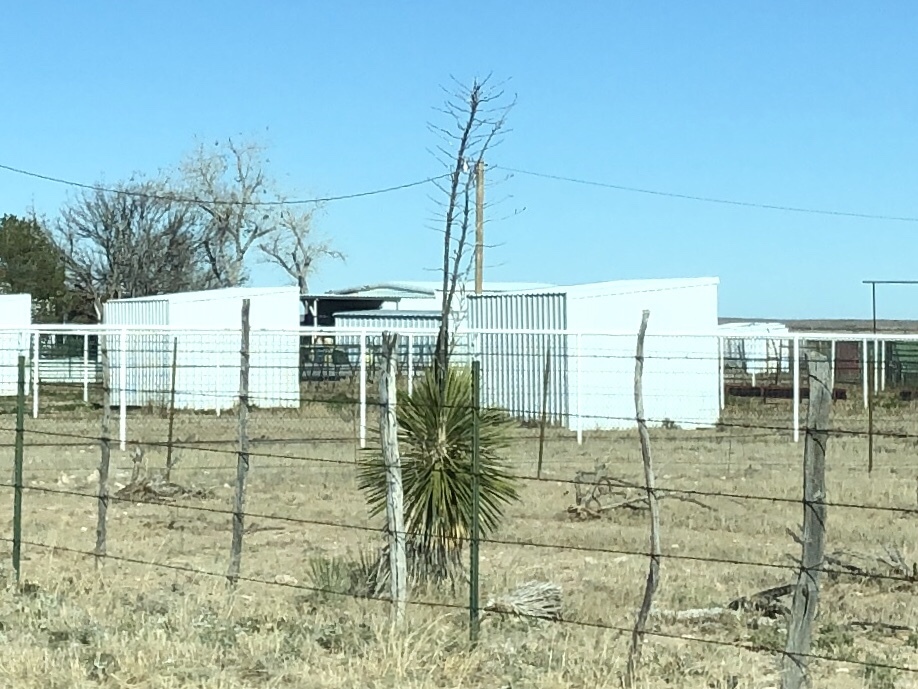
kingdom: Plantae
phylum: Tracheophyta
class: Liliopsida
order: Asparagales
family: Asparagaceae
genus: Yucca
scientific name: Yucca elata
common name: Palmella
